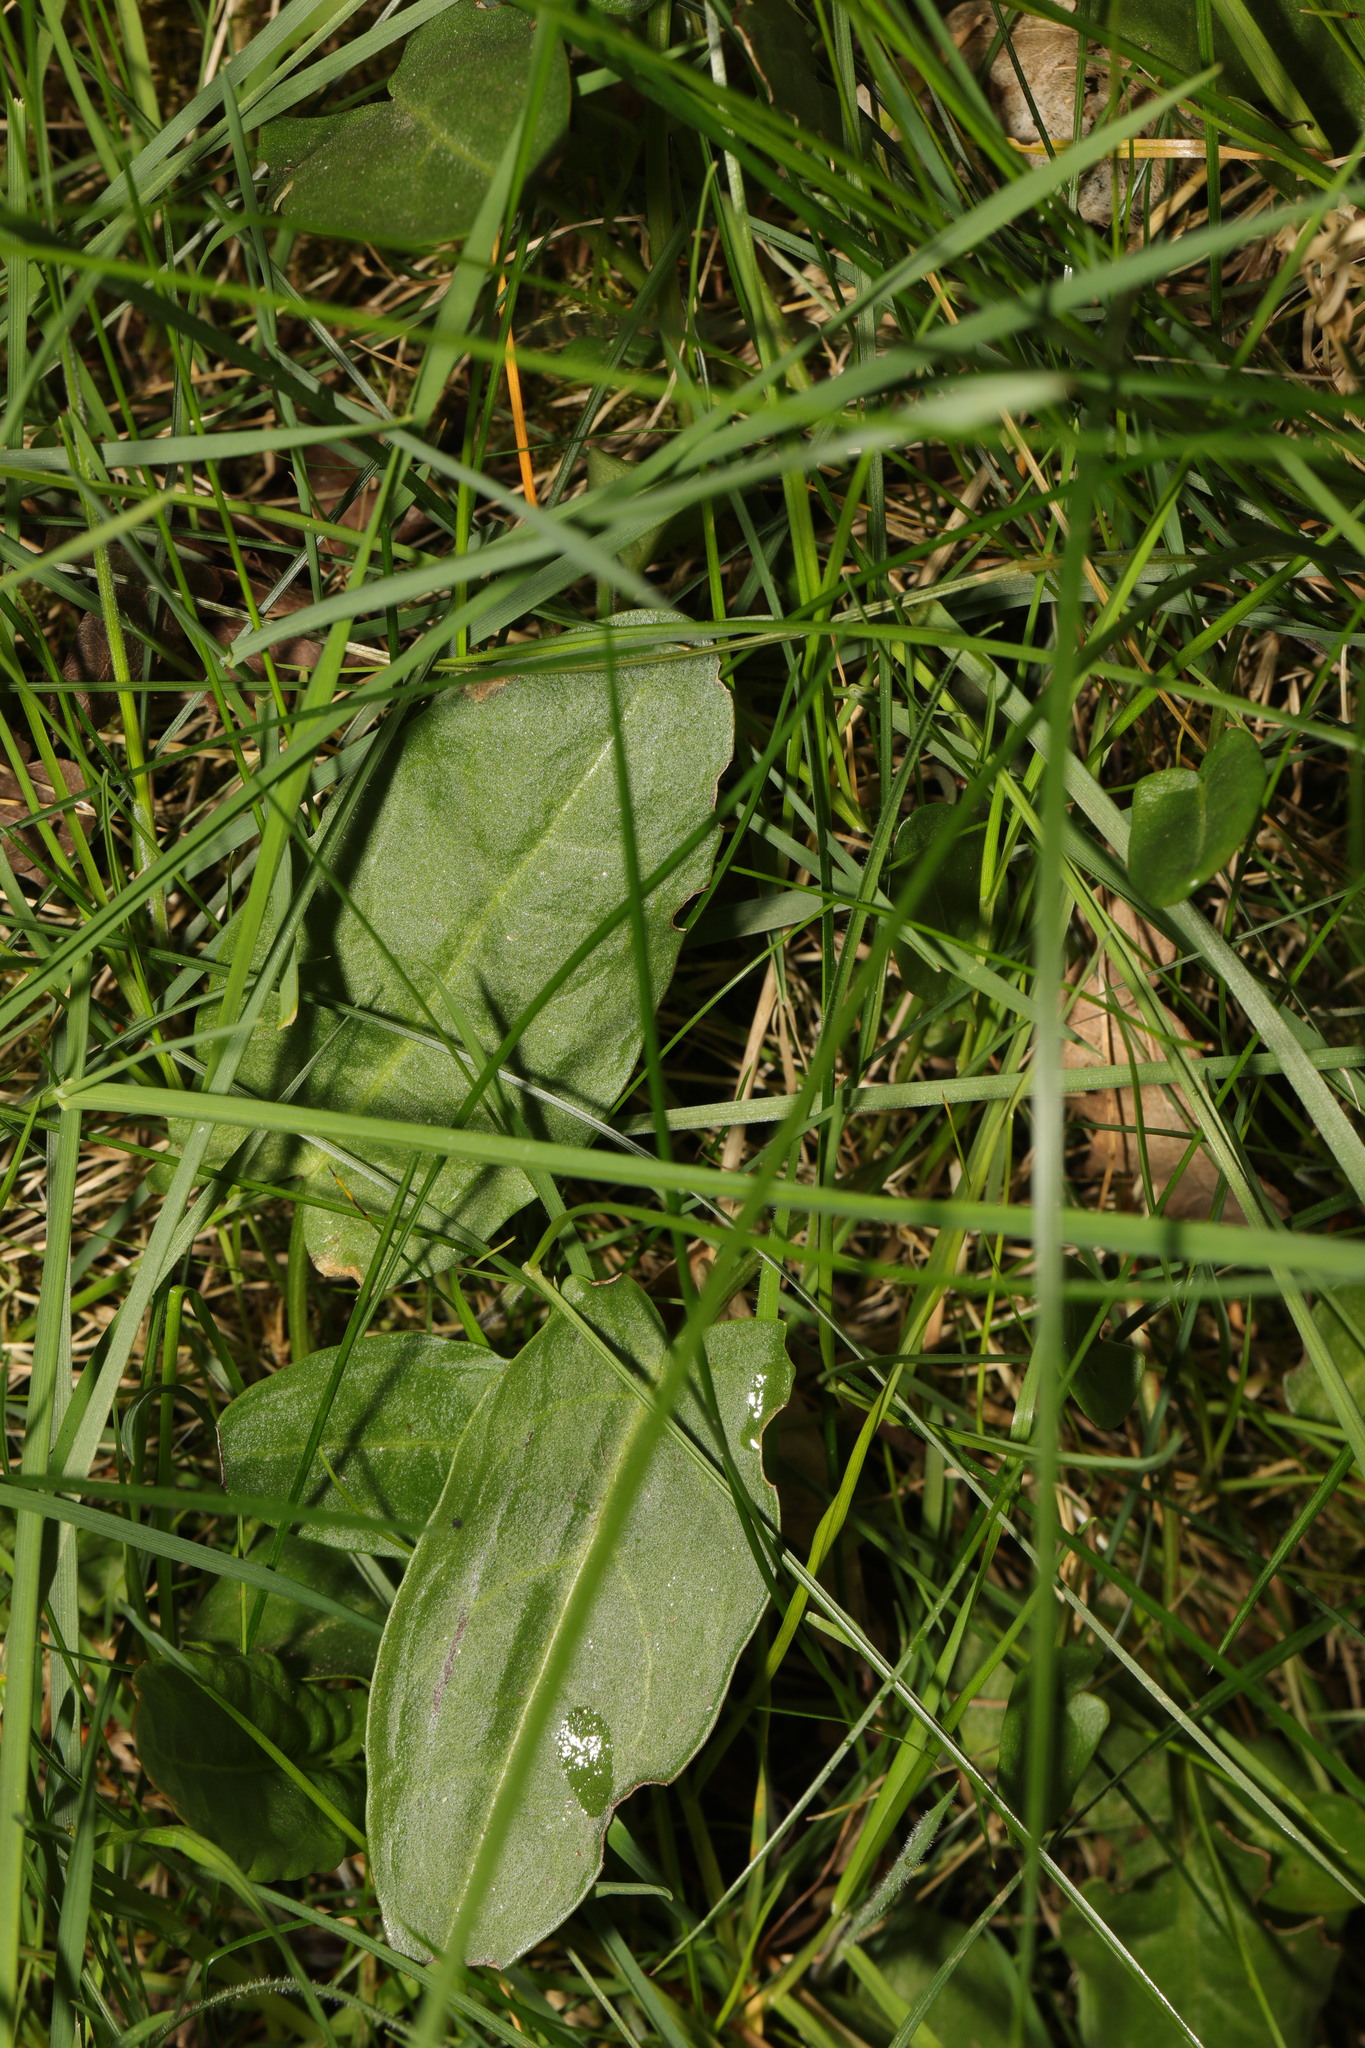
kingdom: Plantae
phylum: Tracheophyta
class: Magnoliopsida
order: Caryophyllales
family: Polygonaceae
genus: Rumex
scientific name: Rumex acetosa
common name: Garden sorrel
